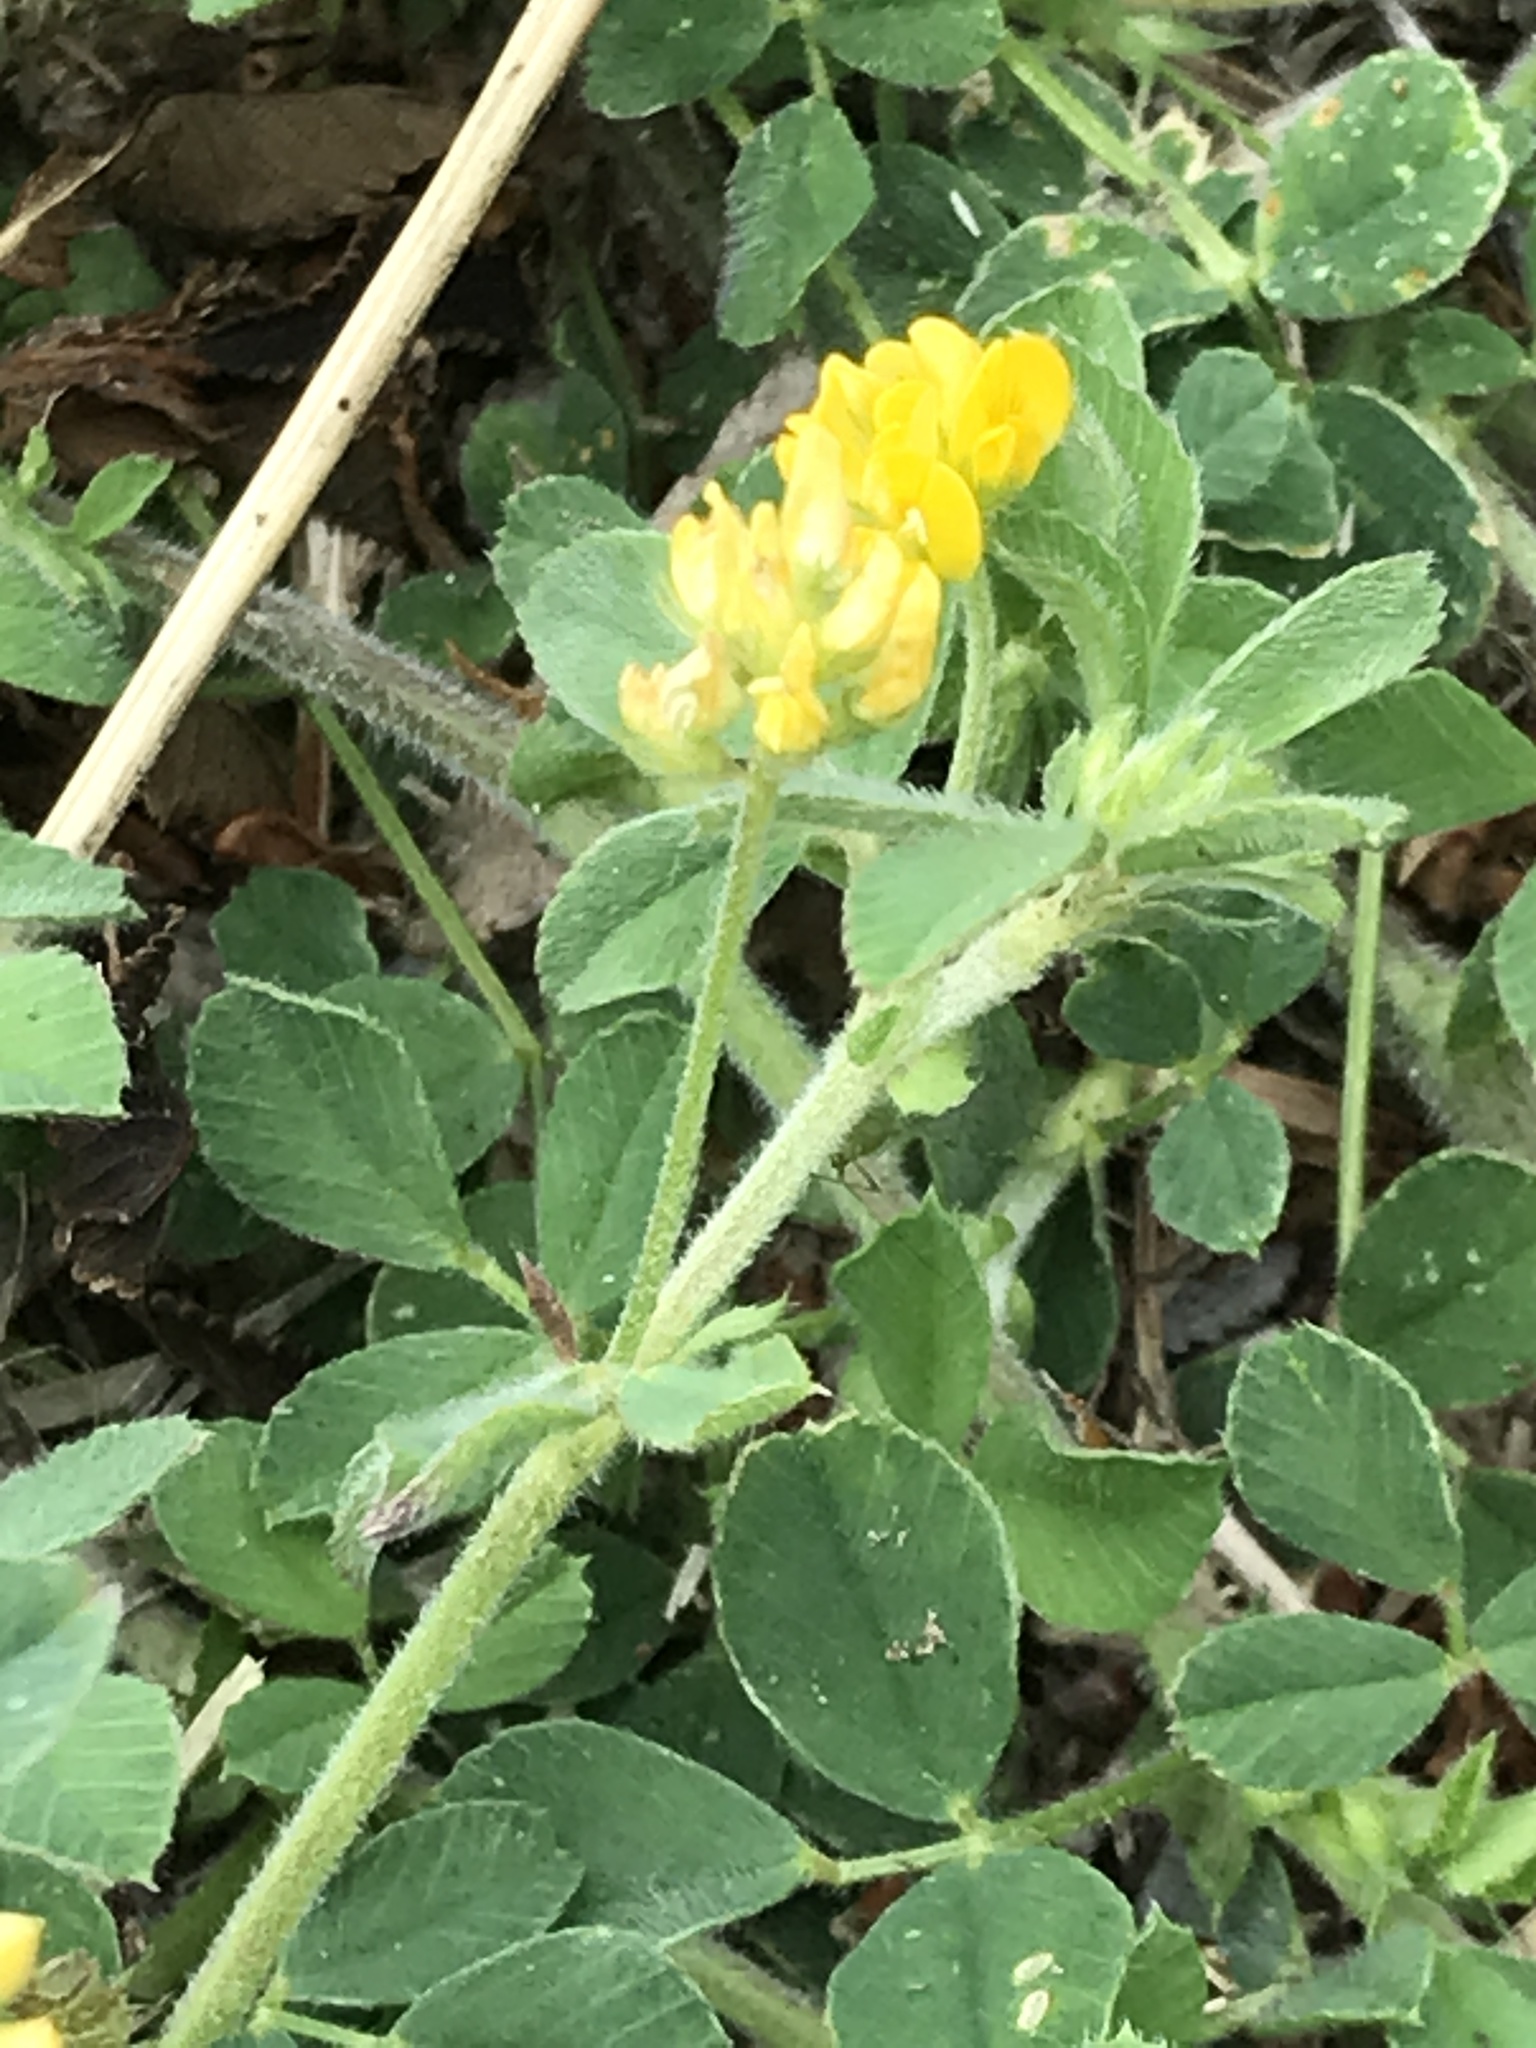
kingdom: Plantae
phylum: Tracheophyta
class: Magnoliopsida
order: Fabales
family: Fabaceae
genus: Medicago
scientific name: Medicago minima
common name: Little bur-clover
